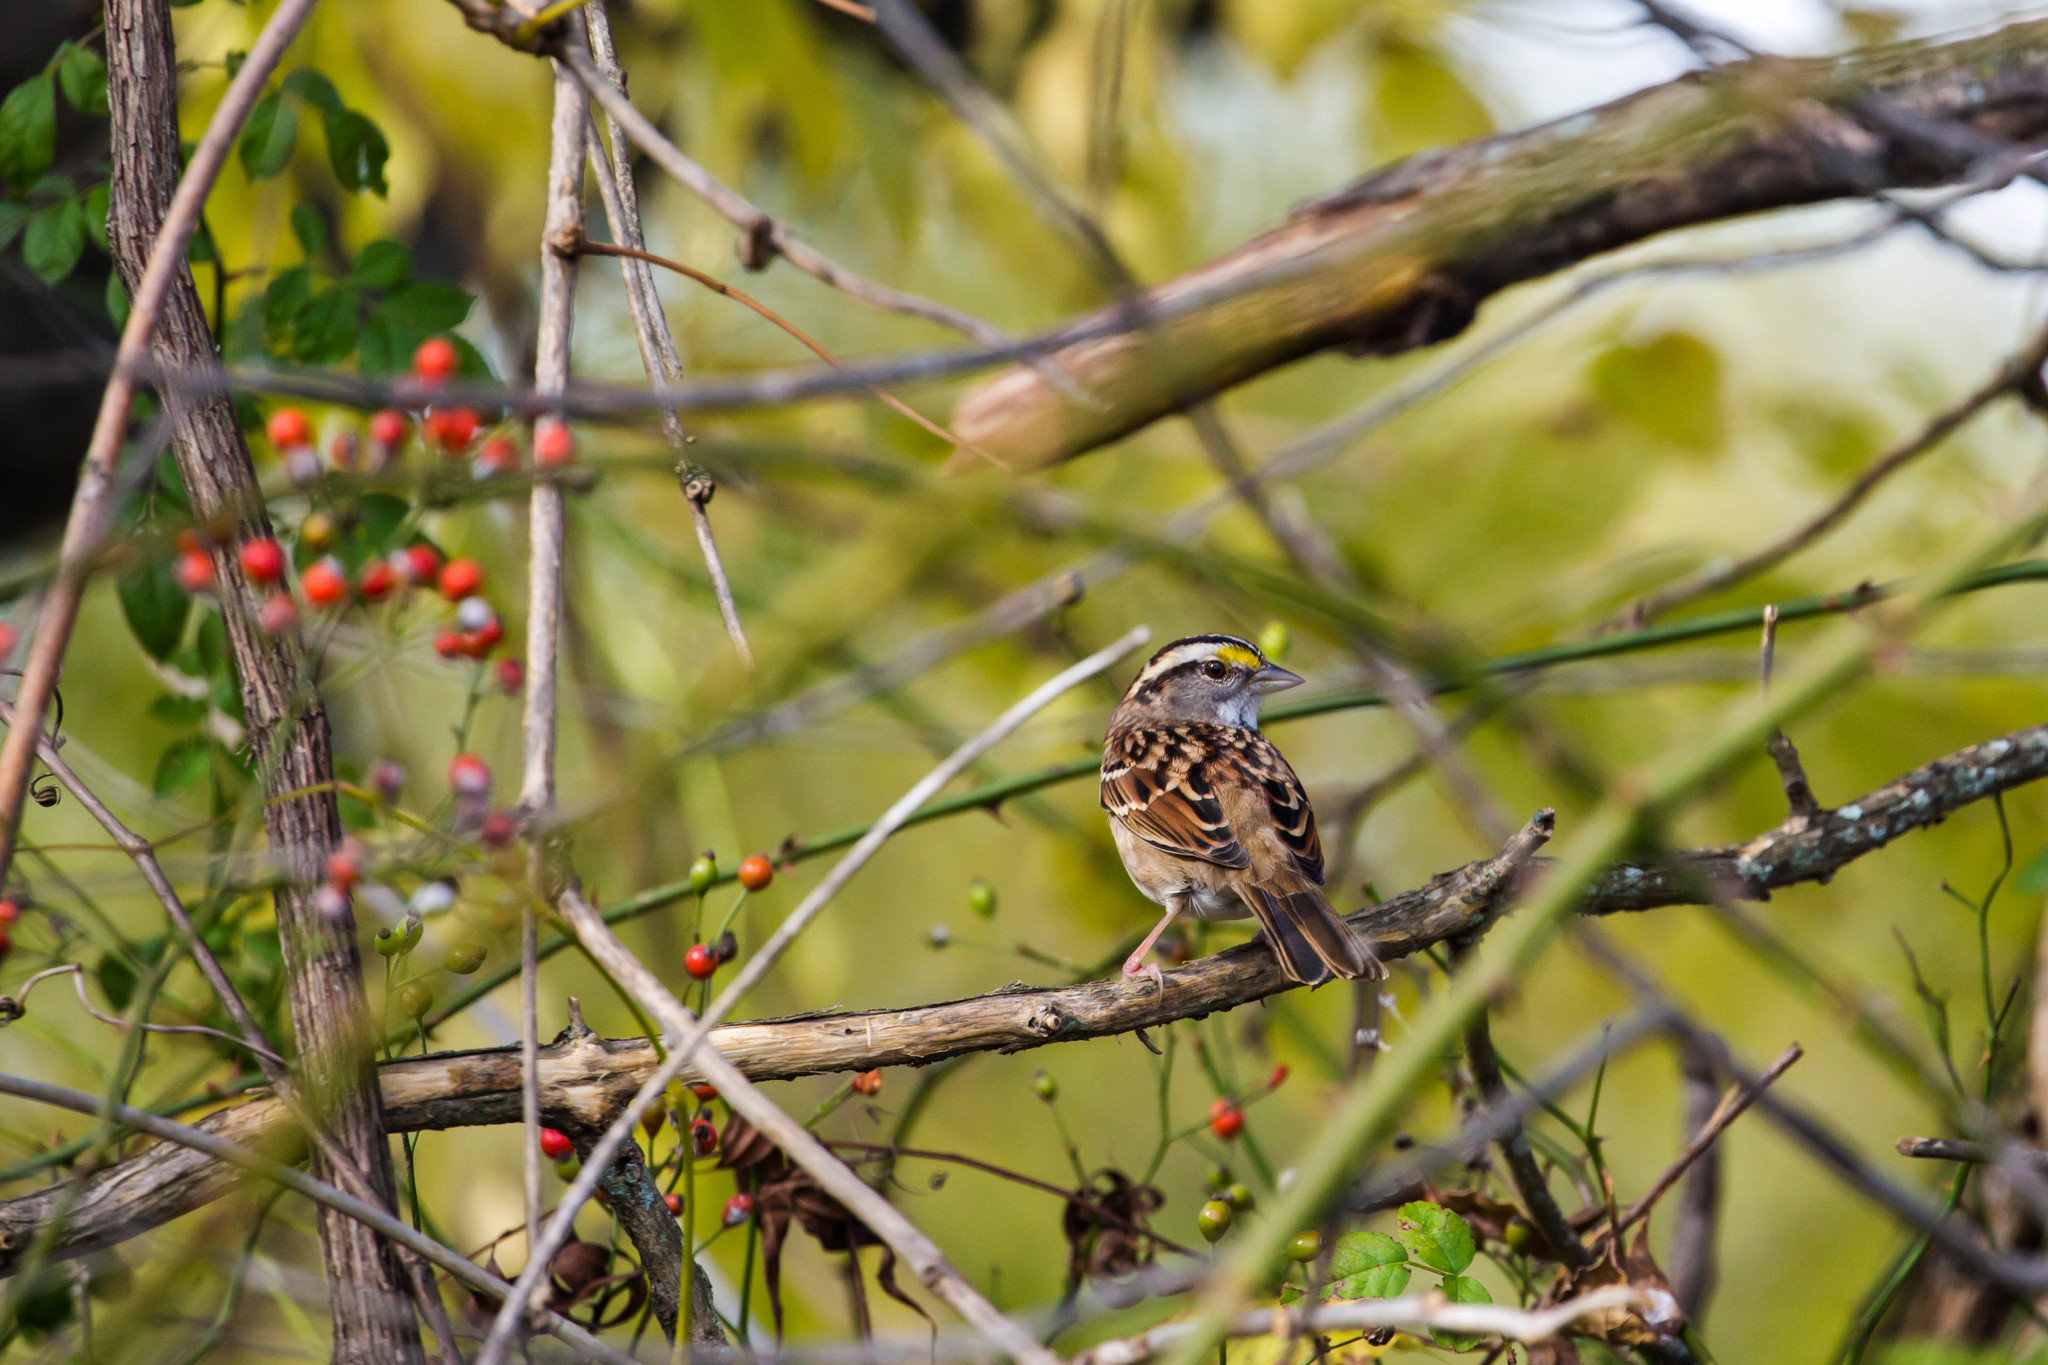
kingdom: Animalia
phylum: Chordata
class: Aves
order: Passeriformes
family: Passerellidae
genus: Zonotrichia
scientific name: Zonotrichia albicollis
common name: White-throated sparrow
